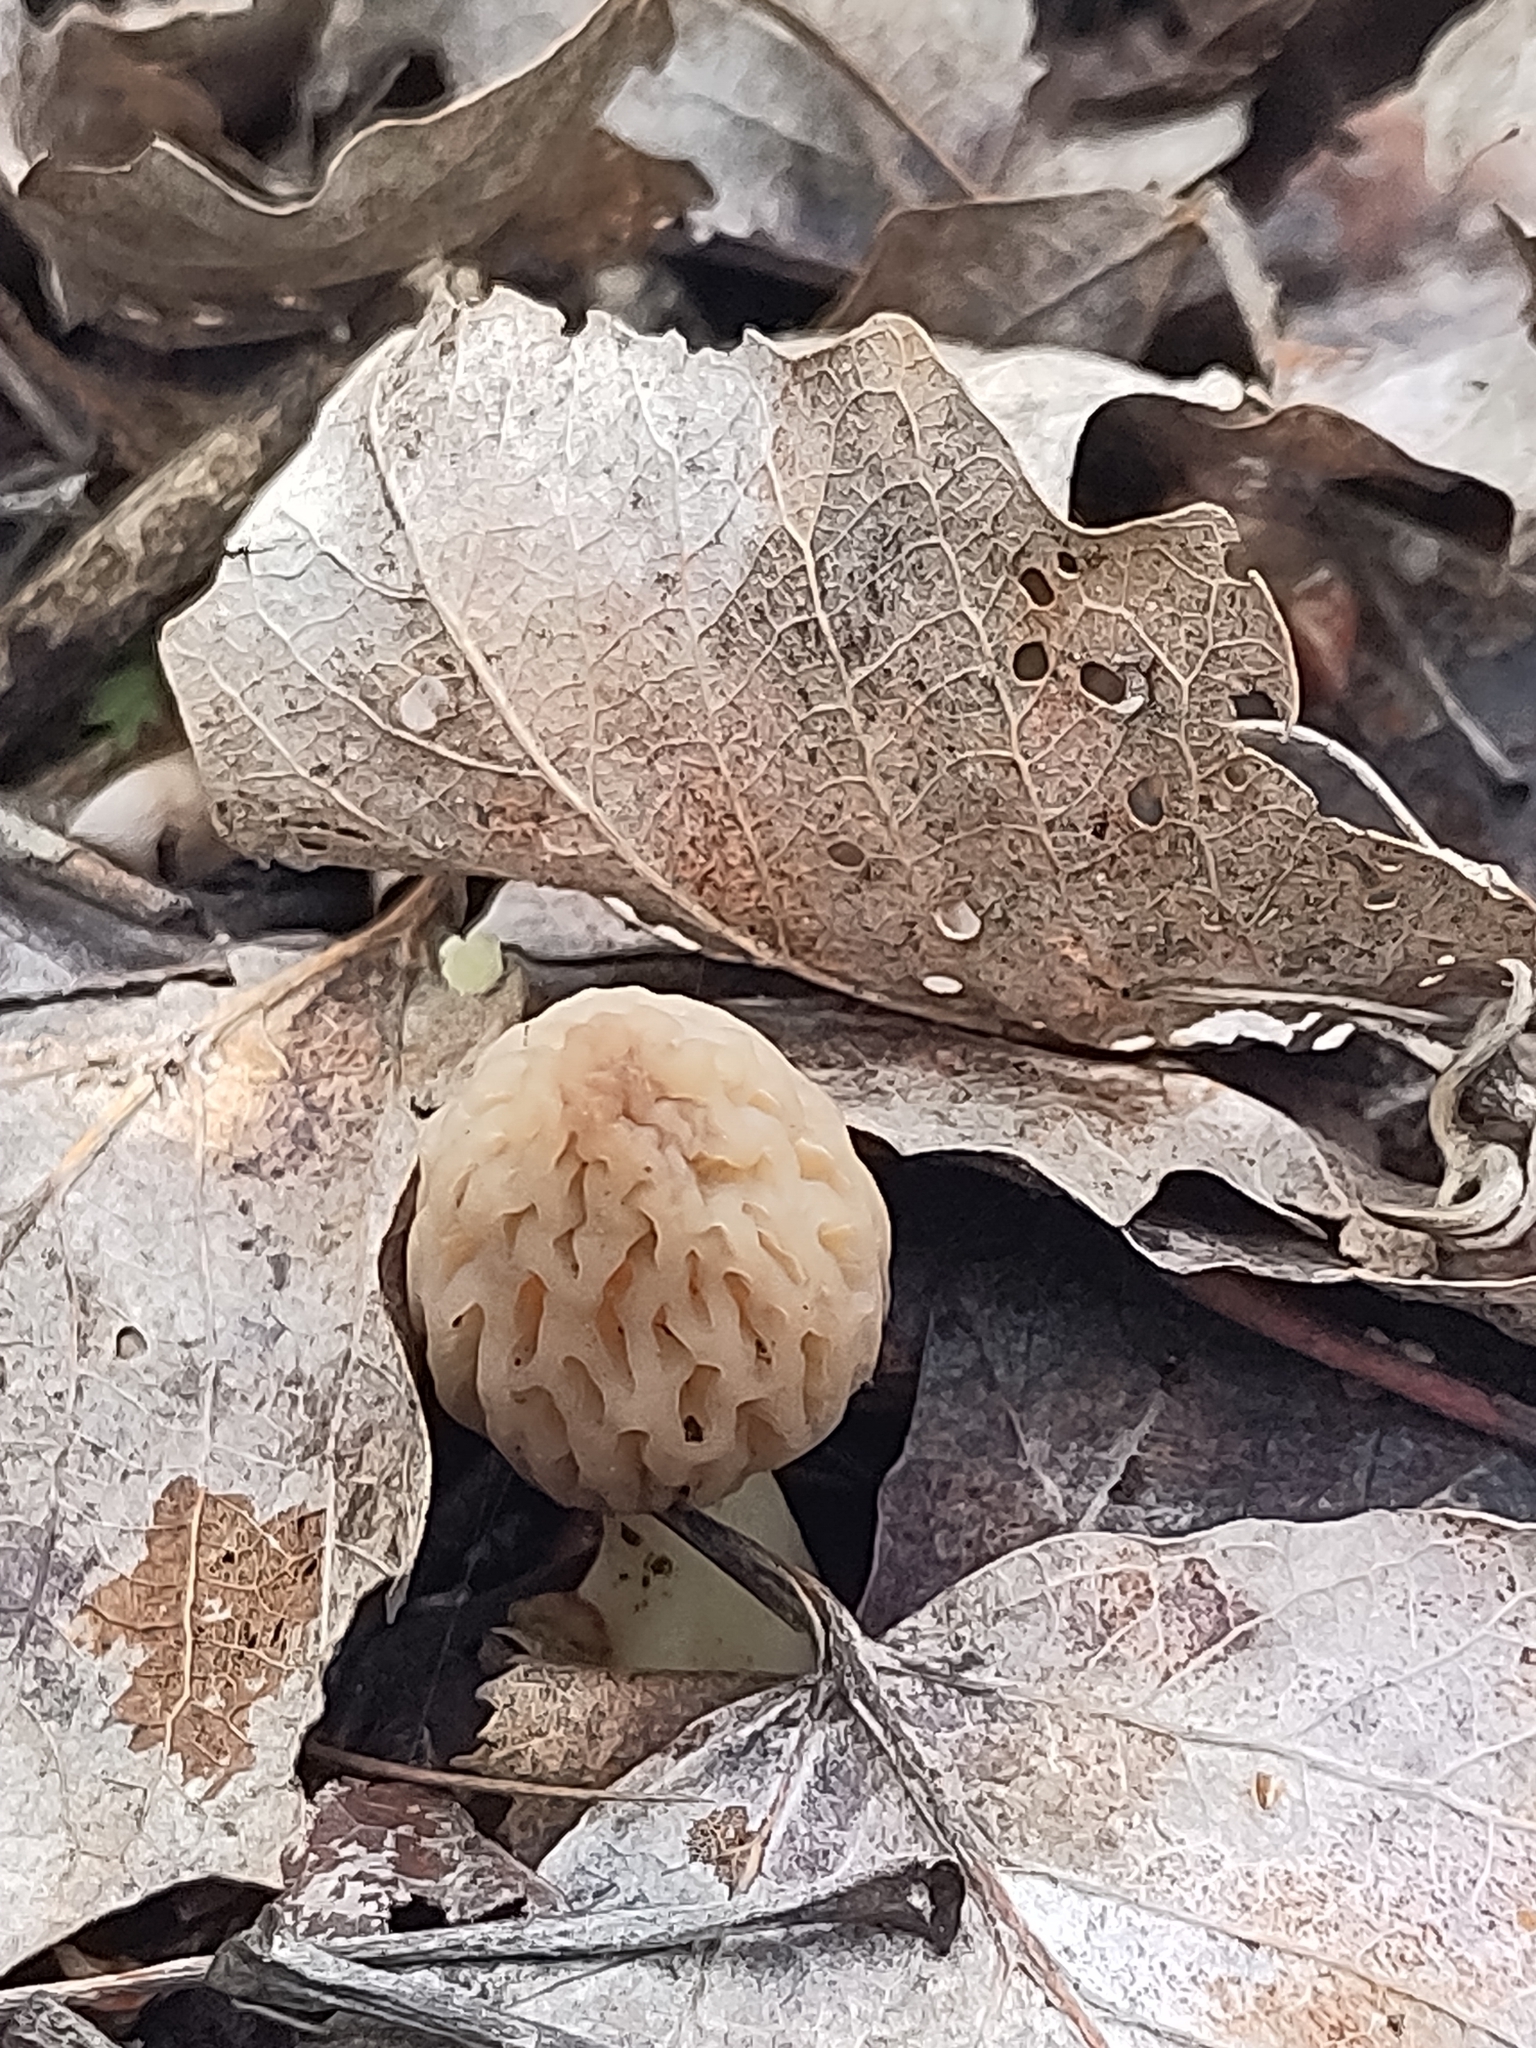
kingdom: Fungi
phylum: Ascomycota
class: Pezizomycetes
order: Pezizales
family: Morchellaceae
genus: Morchella
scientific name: Morchella
